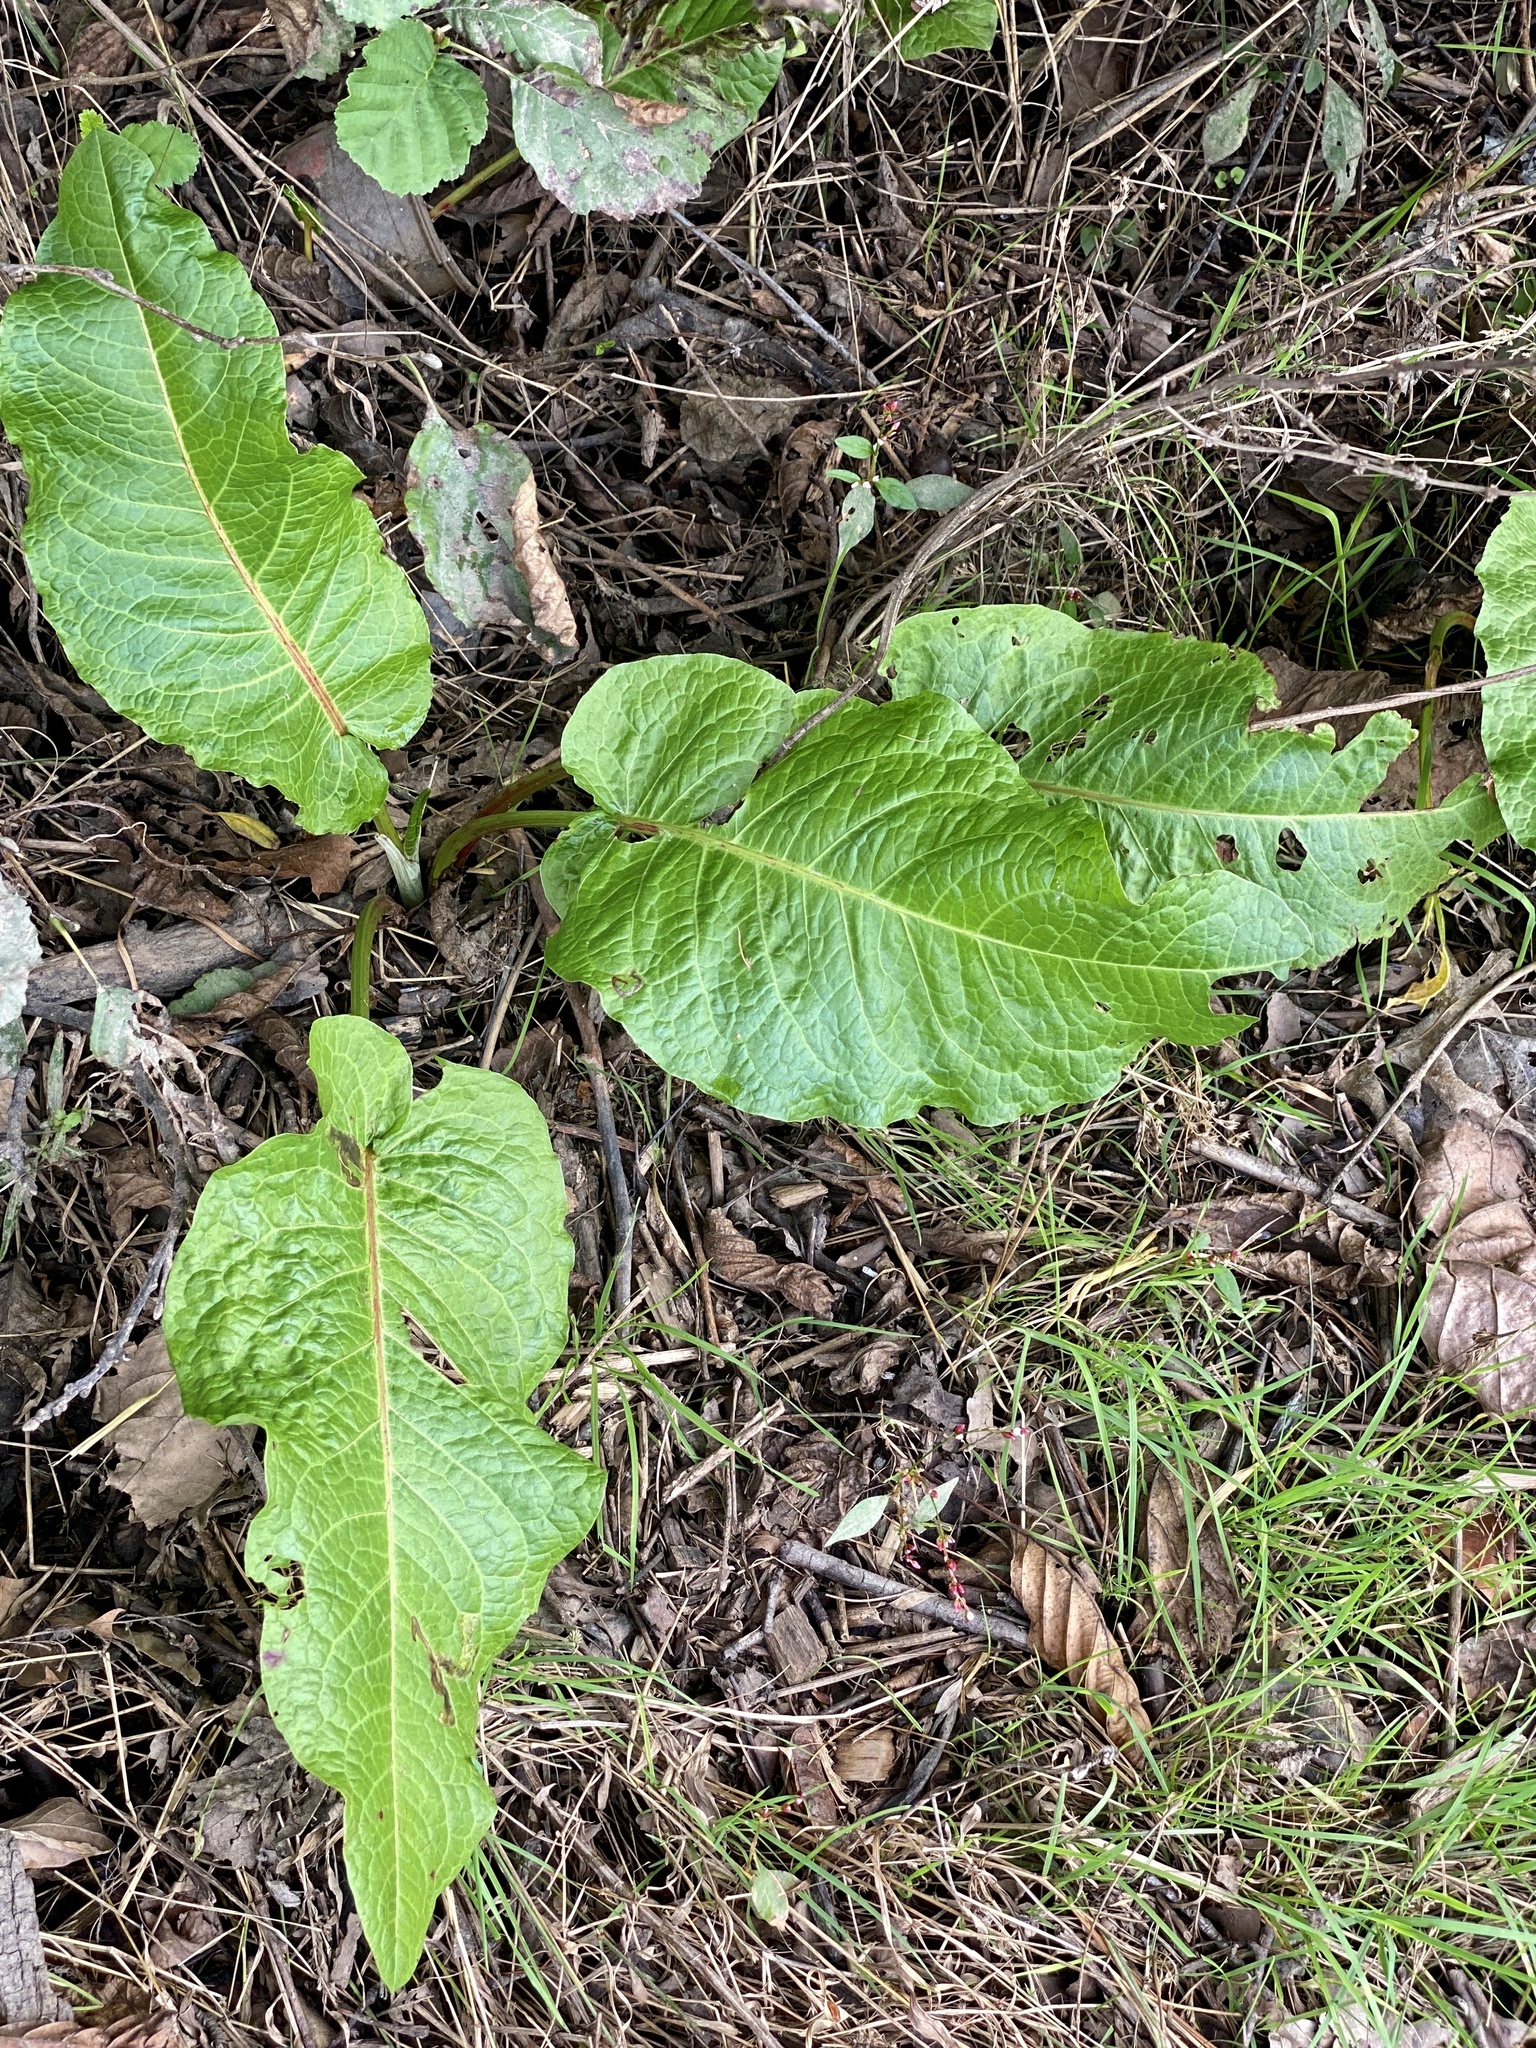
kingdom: Plantae
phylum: Tracheophyta
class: Magnoliopsida
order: Caryophyllales
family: Polygonaceae
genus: Rumex
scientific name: Rumex obtusifolius
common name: Bitter dock
